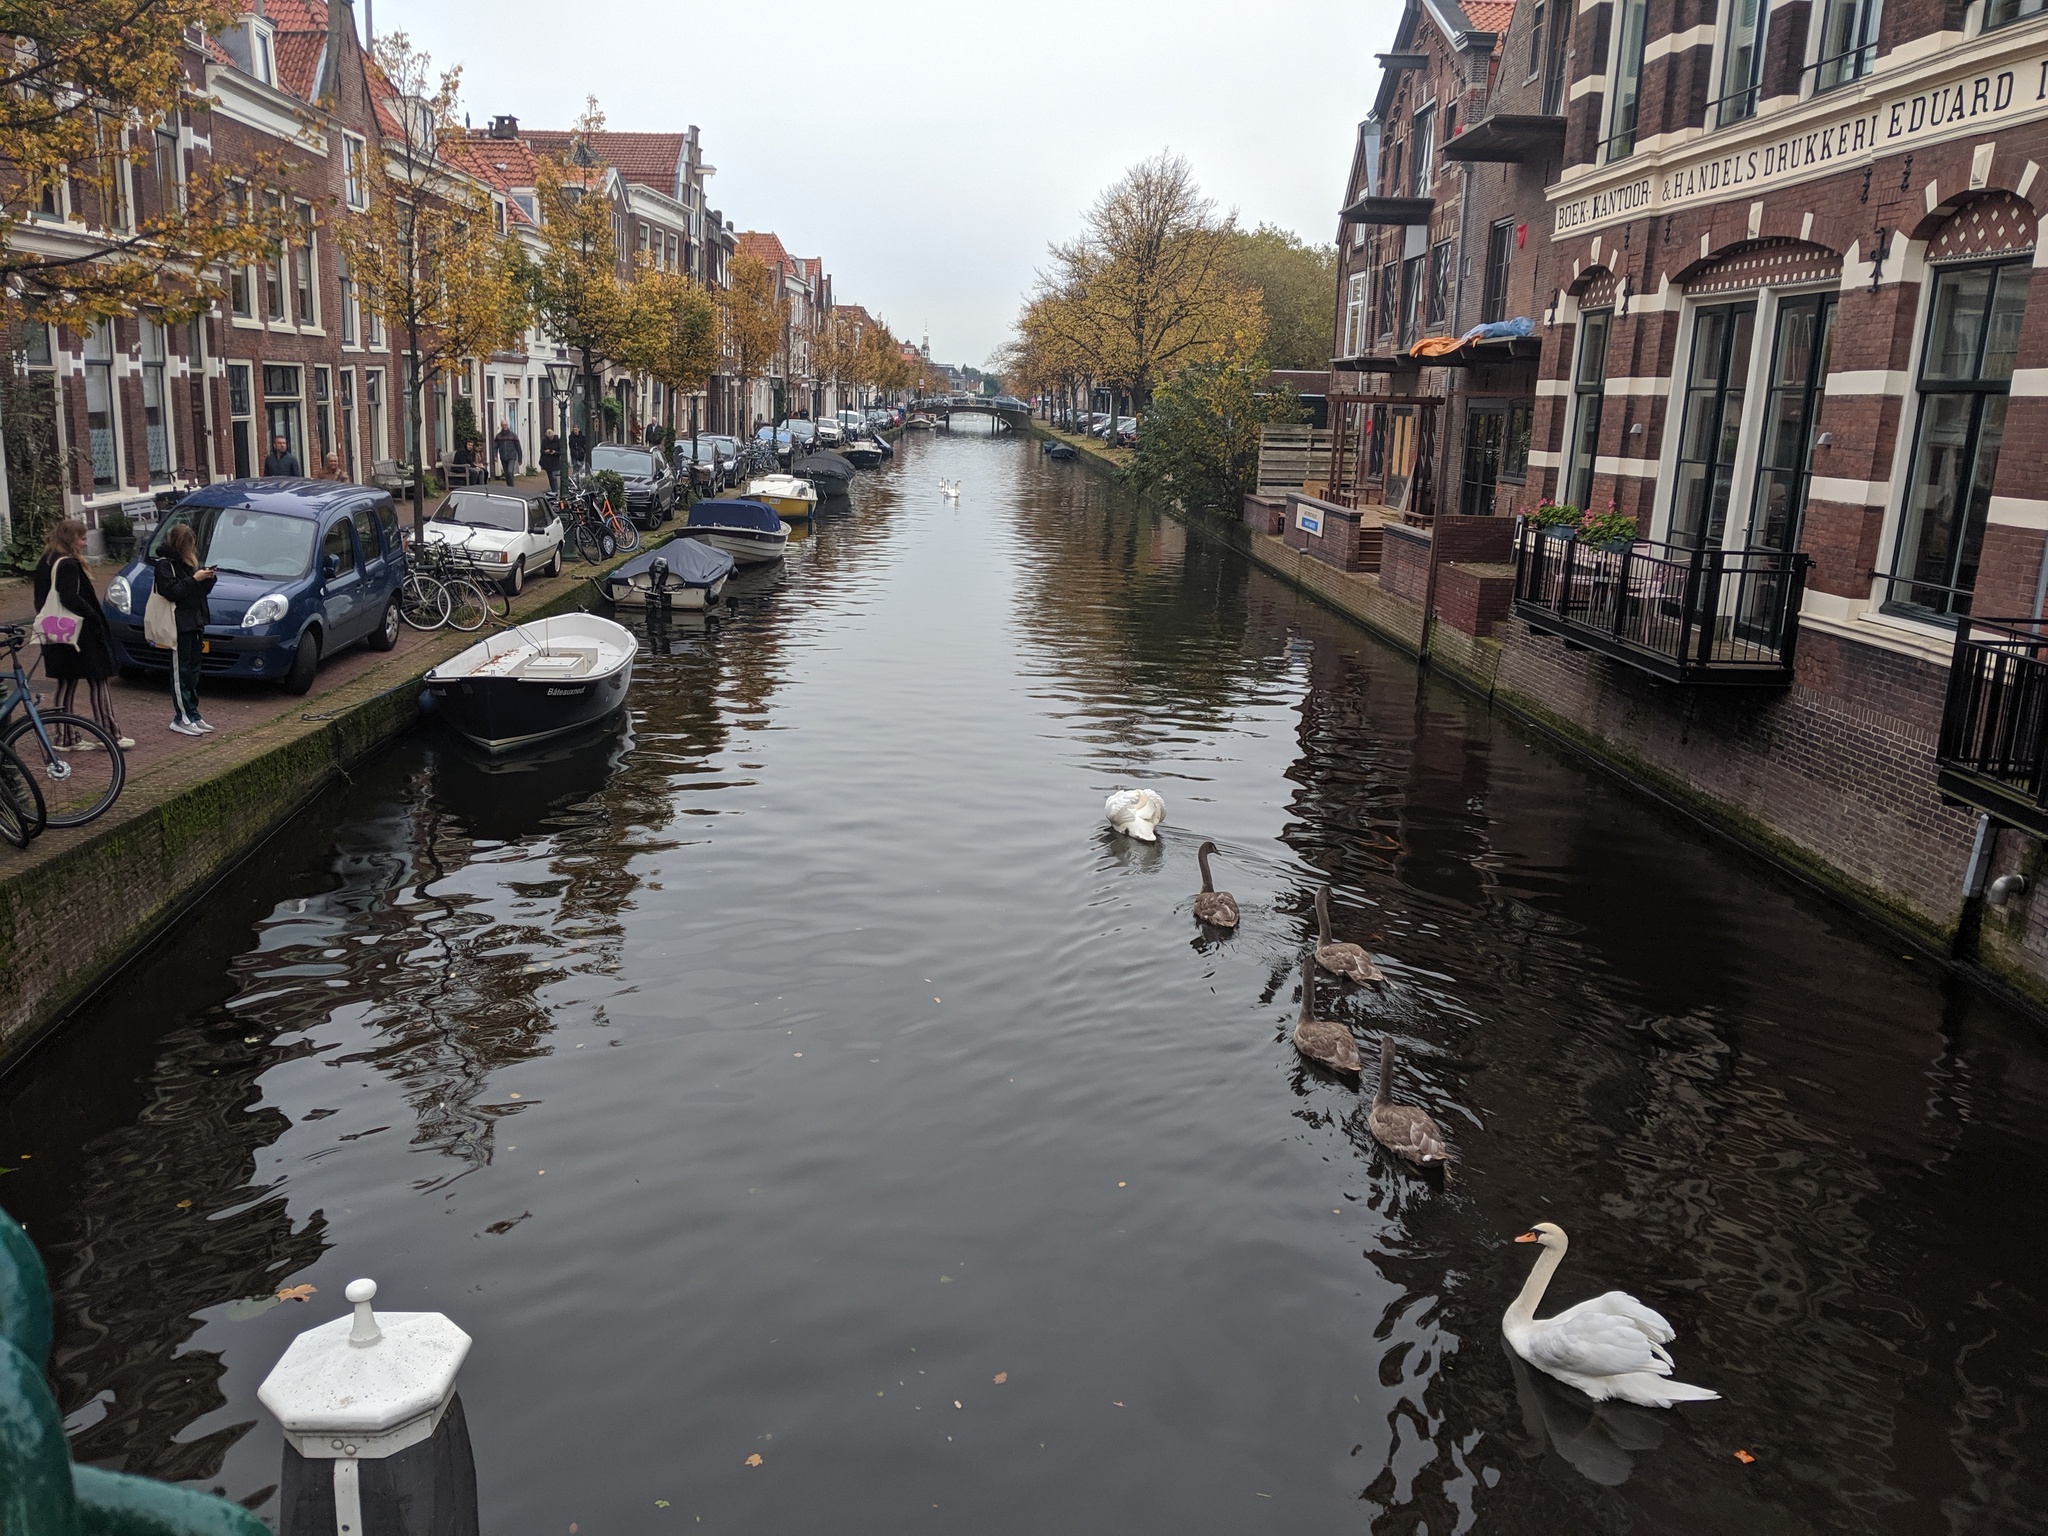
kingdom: Animalia
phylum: Chordata
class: Aves
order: Anseriformes
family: Anatidae
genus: Cygnus
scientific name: Cygnus olor
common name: Mute swan
